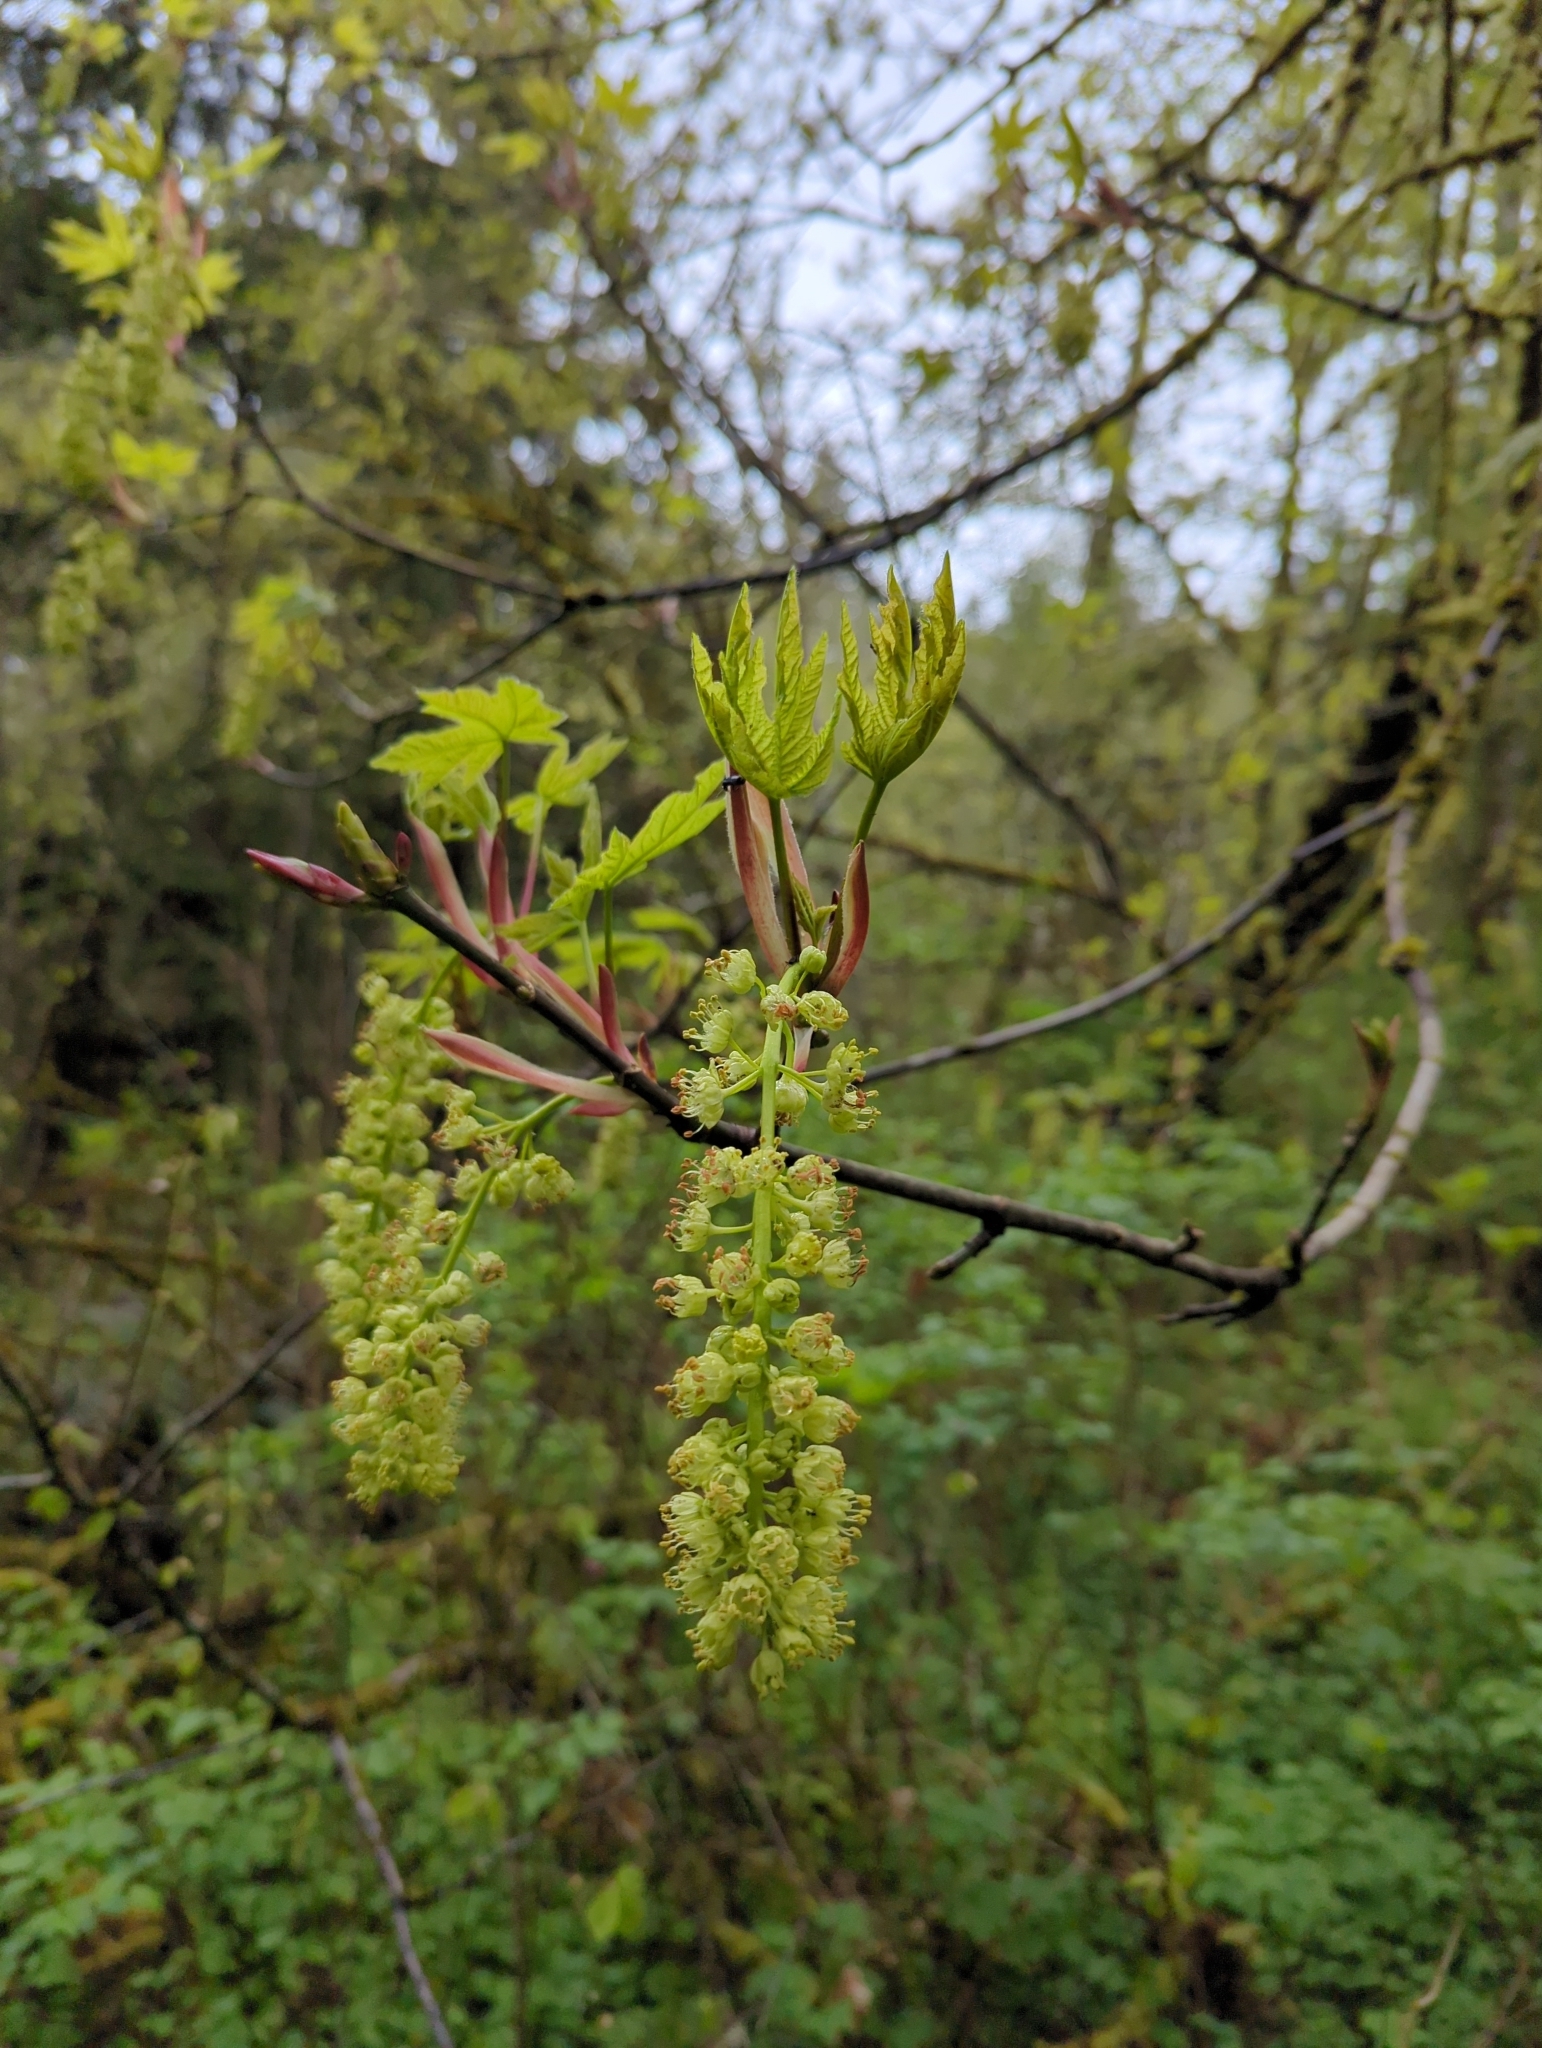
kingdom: Plantae
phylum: Tracheophyta
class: Magnoliopsida
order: Sapindales
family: Sapindaceae
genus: Acer
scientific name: Acer macrophyllum
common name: Oregon maple
